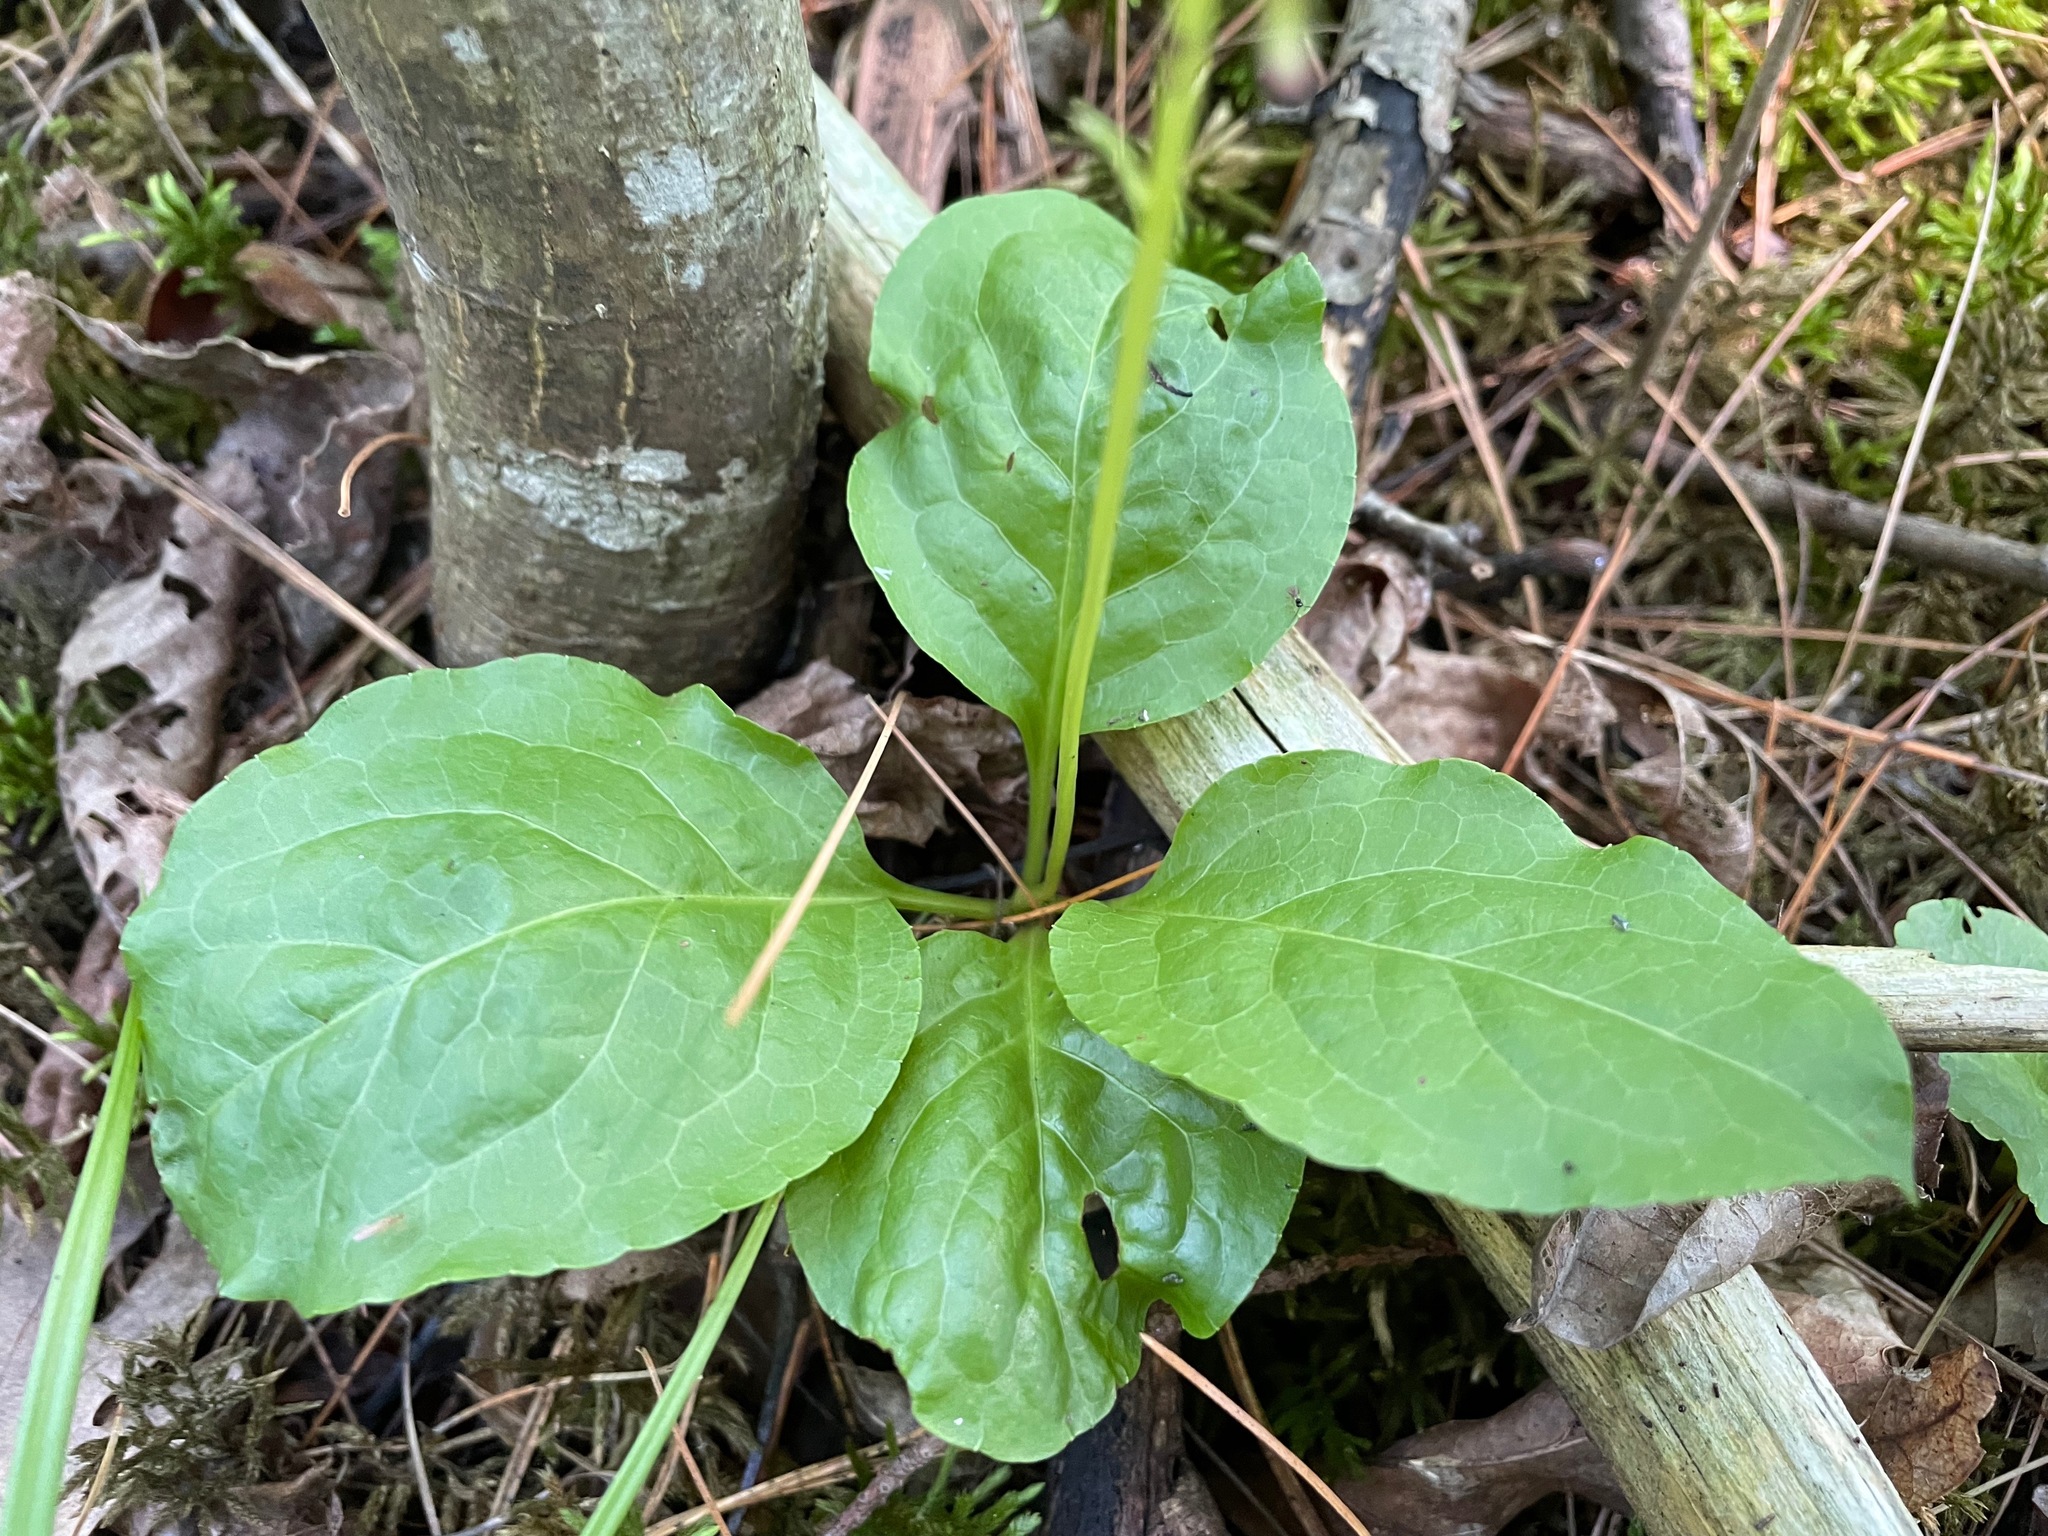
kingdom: Plantae
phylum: Tracheophyta
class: Magnoliopsida
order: Ericales
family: Ericaceae
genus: Pyrola
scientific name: Pyrola elliptica
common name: Shinleaf
